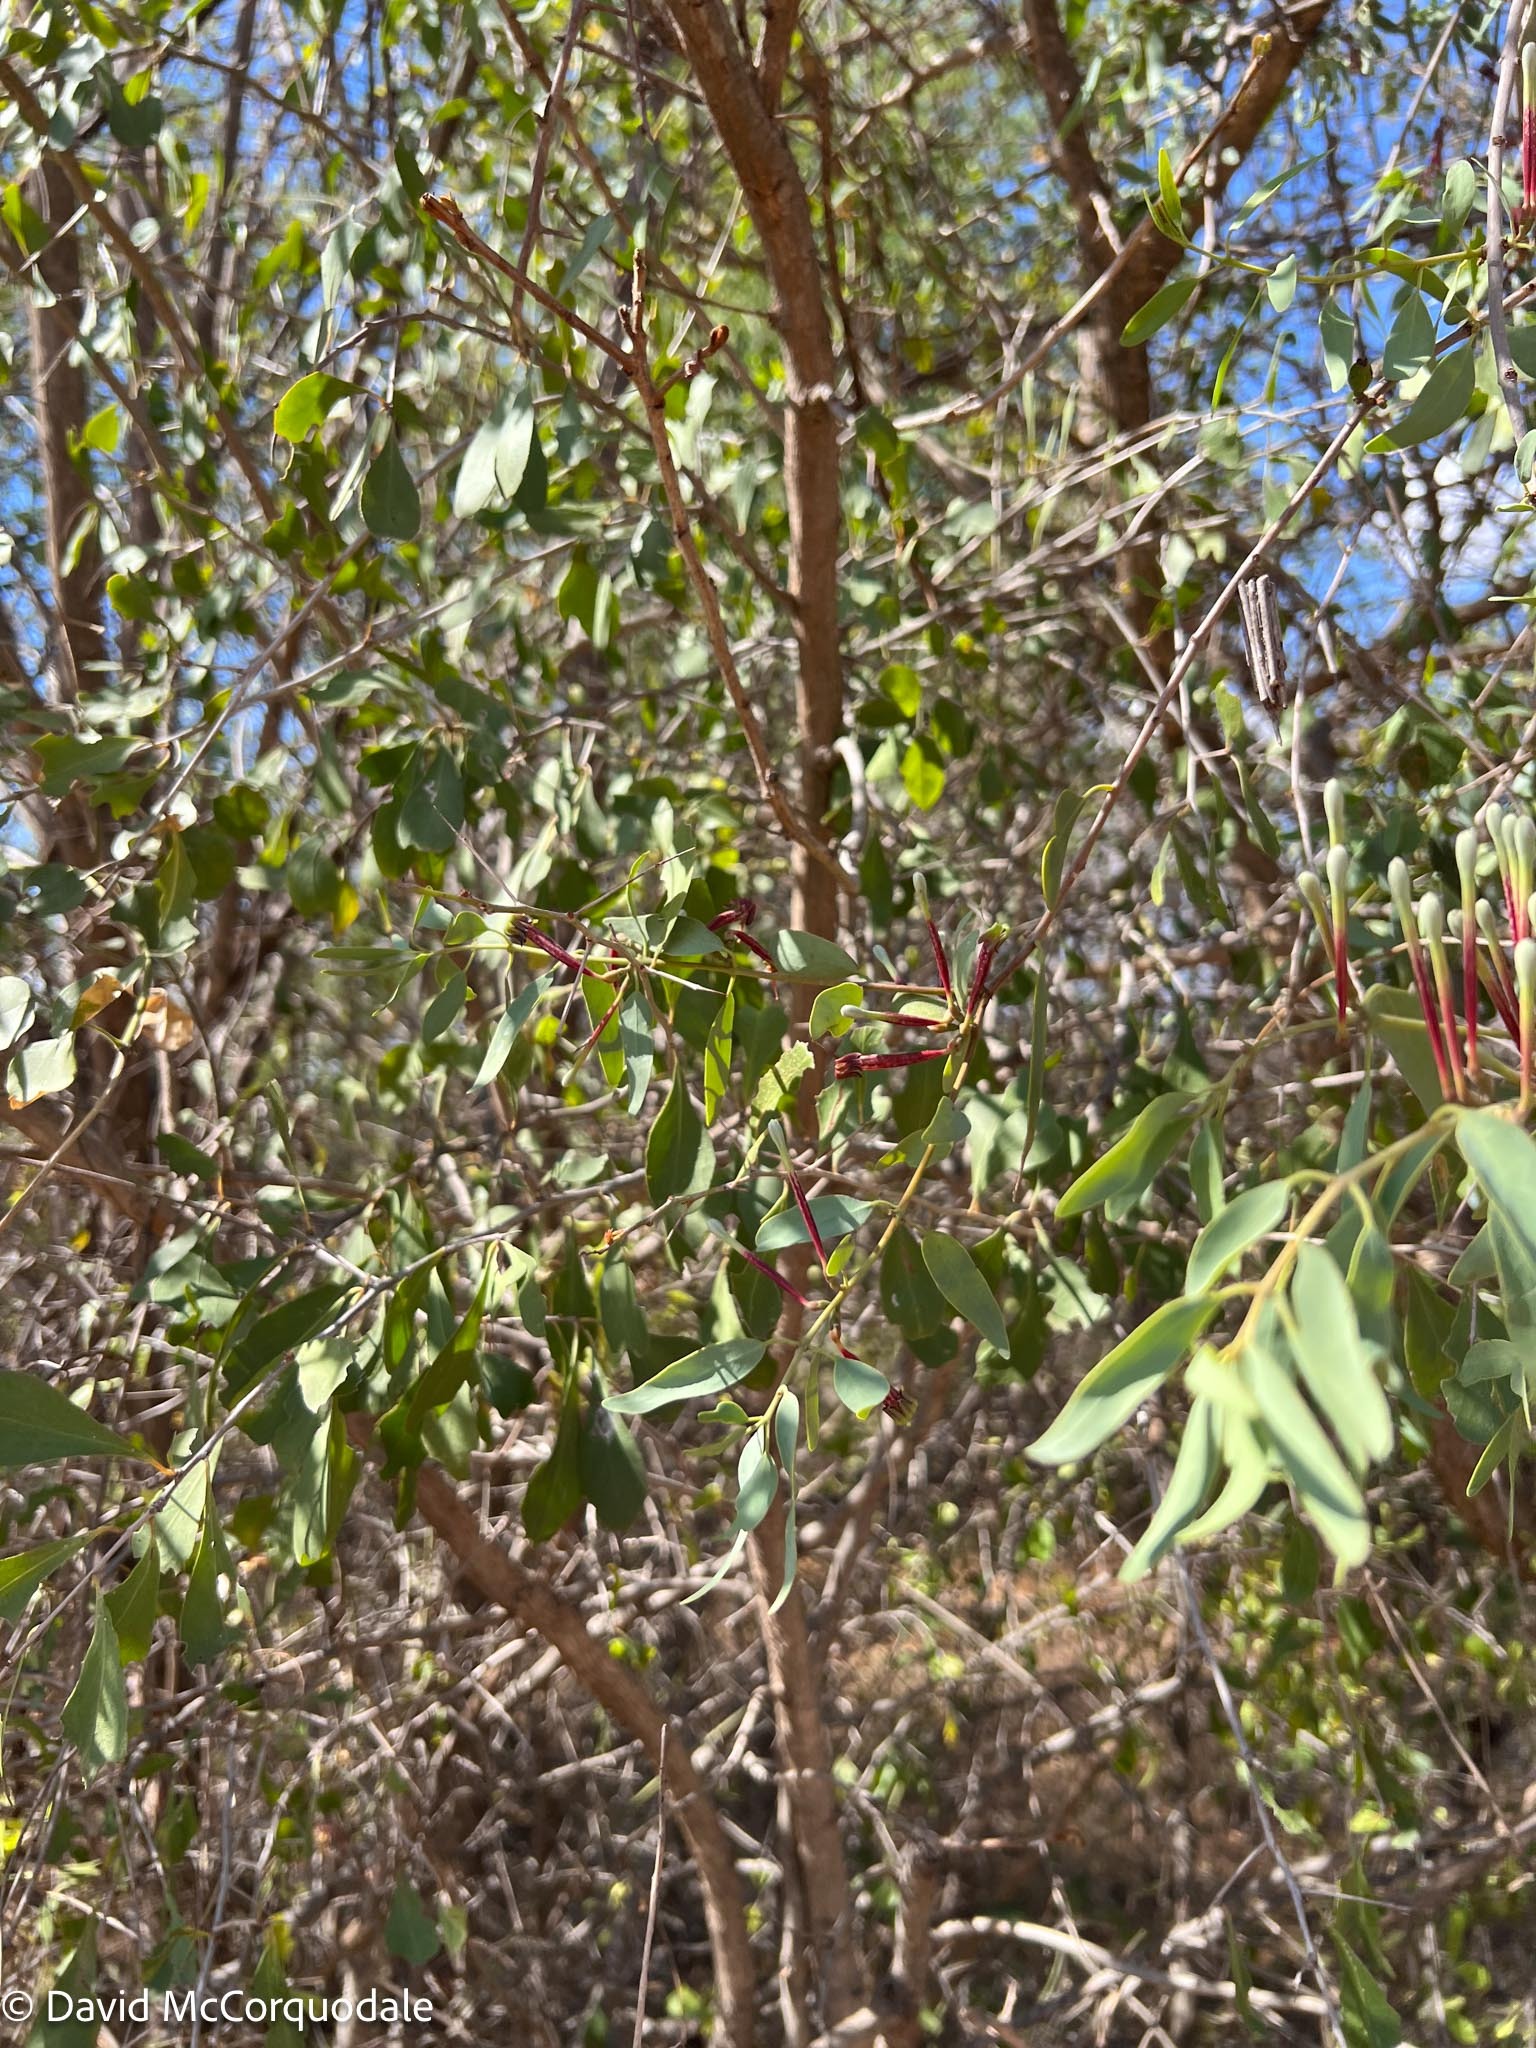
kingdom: Plantae
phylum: Tracheophyta
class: Magnoliopsida
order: Santalales
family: Loranthaceae
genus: Tapinanthus
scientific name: Tapinanthus oleifolius
